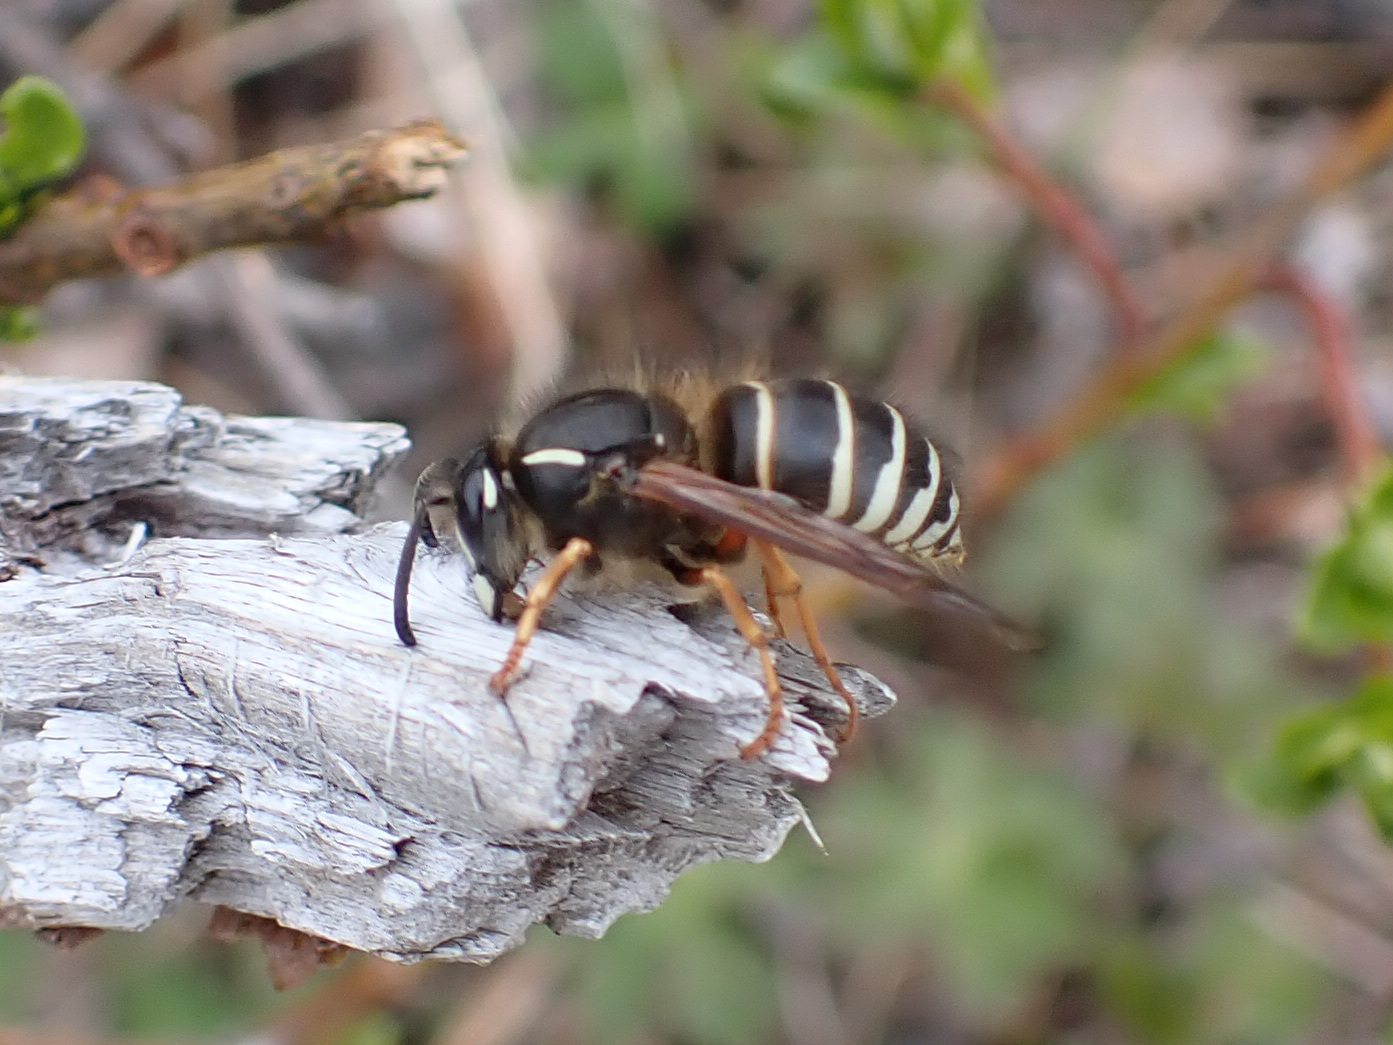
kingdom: Animalia
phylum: Arthropoda
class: Insecta
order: Hymenoptera
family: Vespidae
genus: Dolichovespula
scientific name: Dolichovespula norwegica
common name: Norwegian wasp
